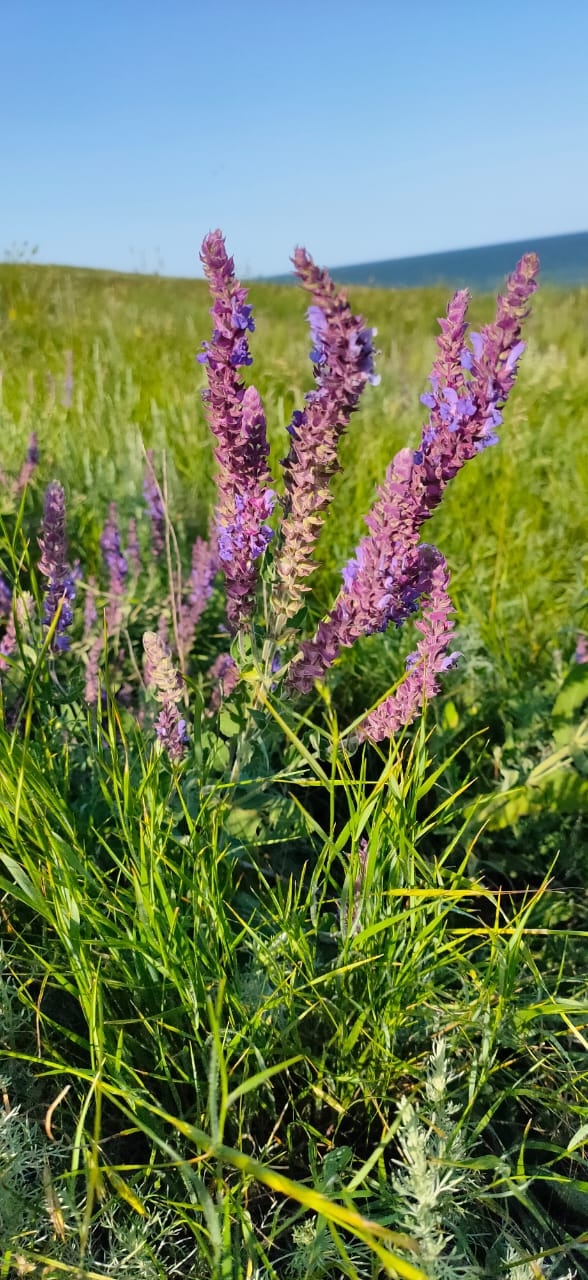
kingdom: Plantae
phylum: Tracheophyta
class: Magnoliopsida
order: Lamiales
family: Lamiaceae
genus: Salvia
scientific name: Salvia nemorosa
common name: Balkan clary
